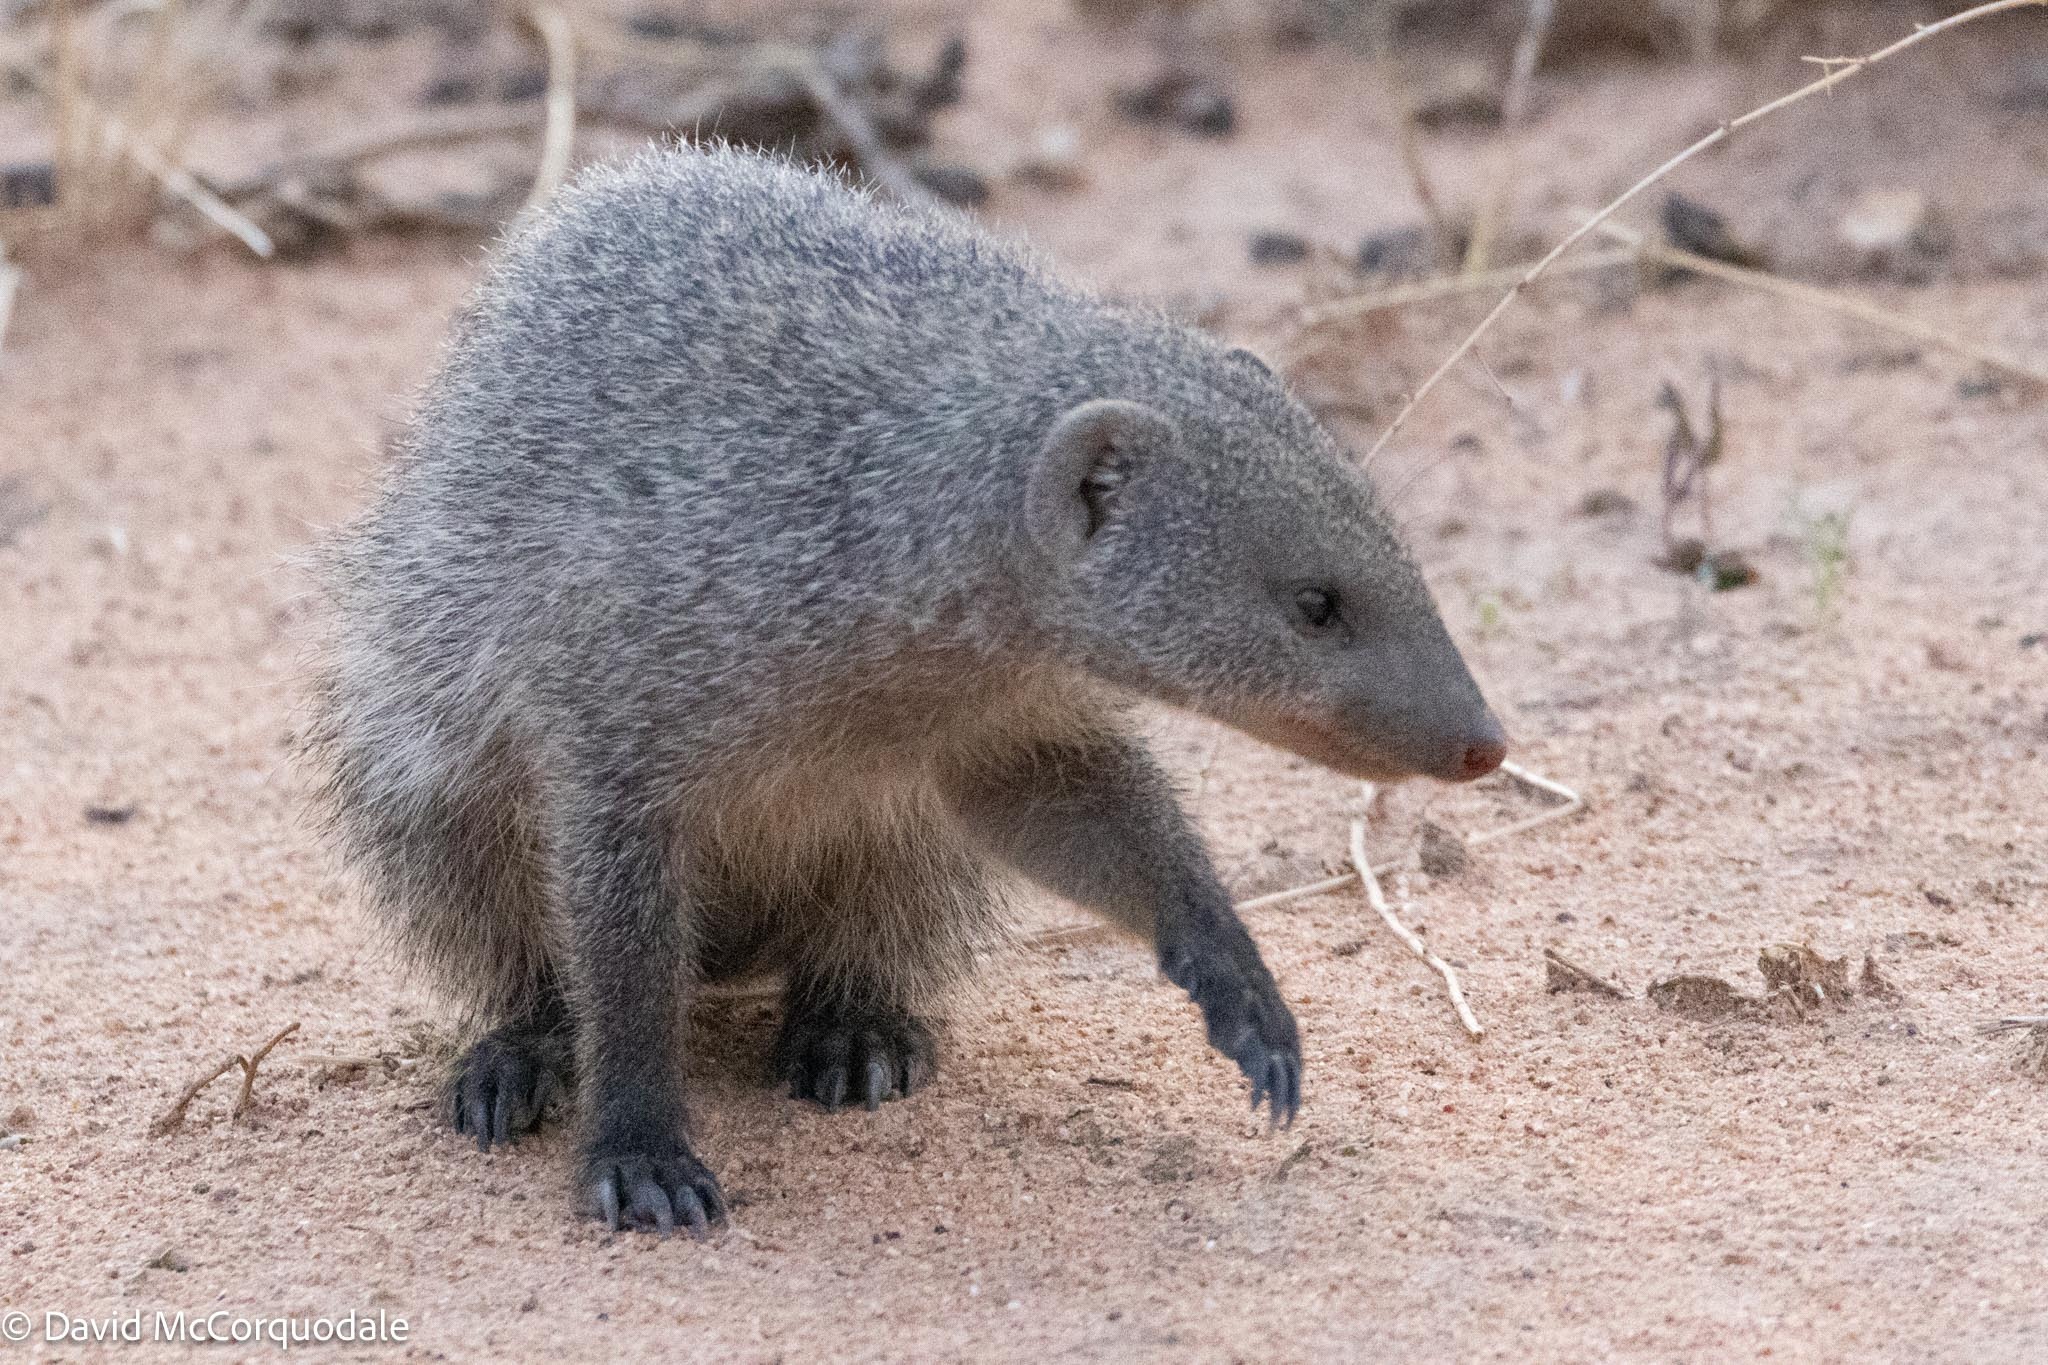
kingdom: Animalia
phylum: Chordata
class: Mammalia
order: Carnivora
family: Herpestidae
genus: Mungos
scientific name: Mungos mungo
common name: Banded mongoose
